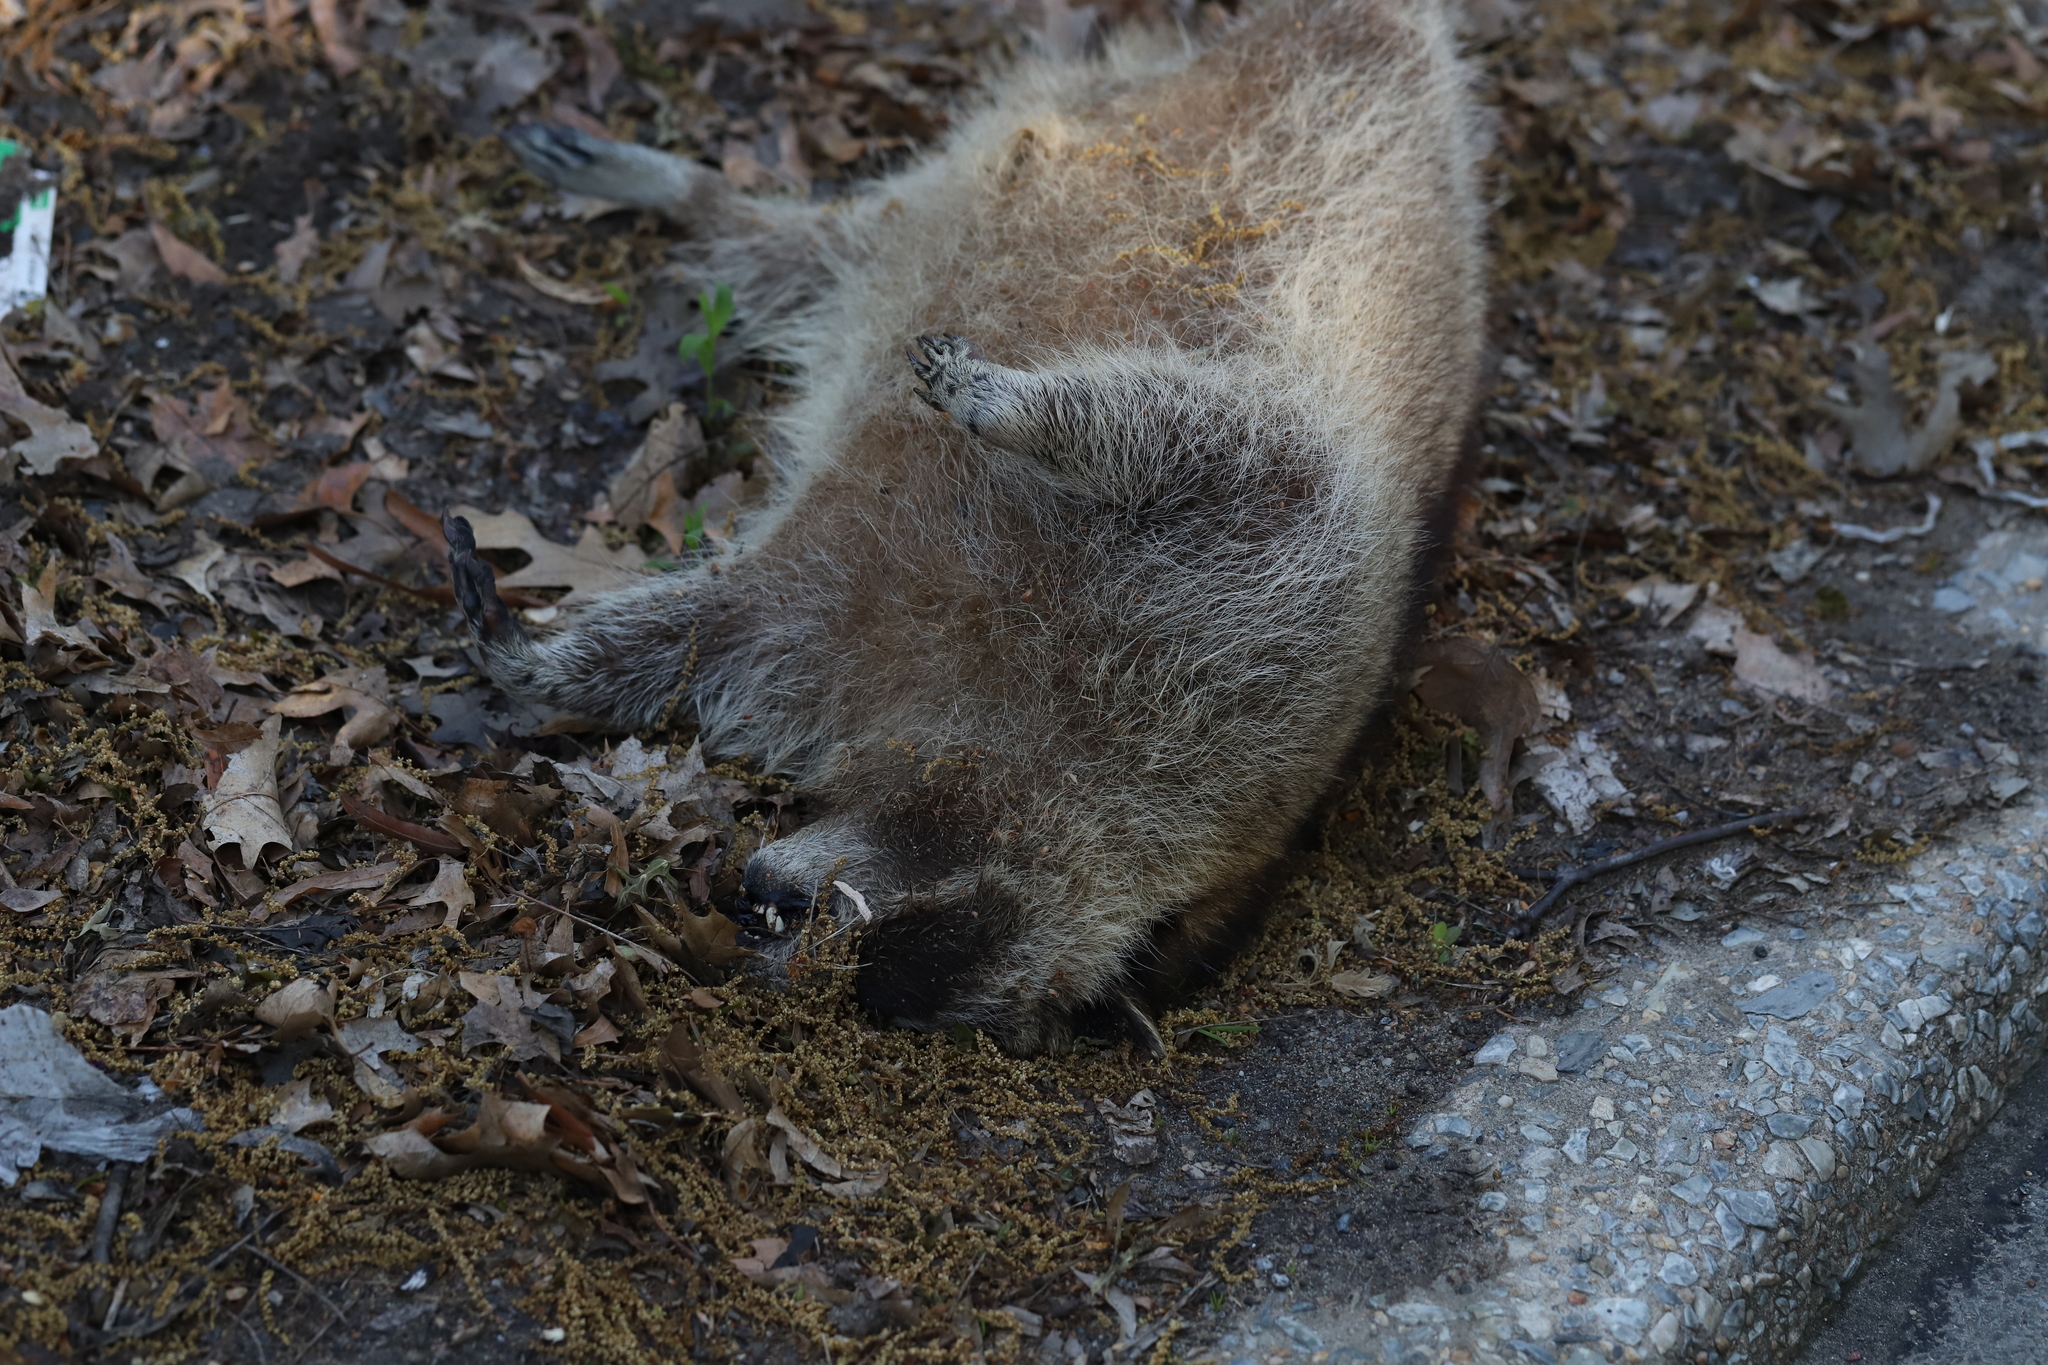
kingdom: Animalia
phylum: Chordata
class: Mammalia
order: Carnivora
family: Procyonidae
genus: Procyon
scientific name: Procyon lotor
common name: Raccoon
